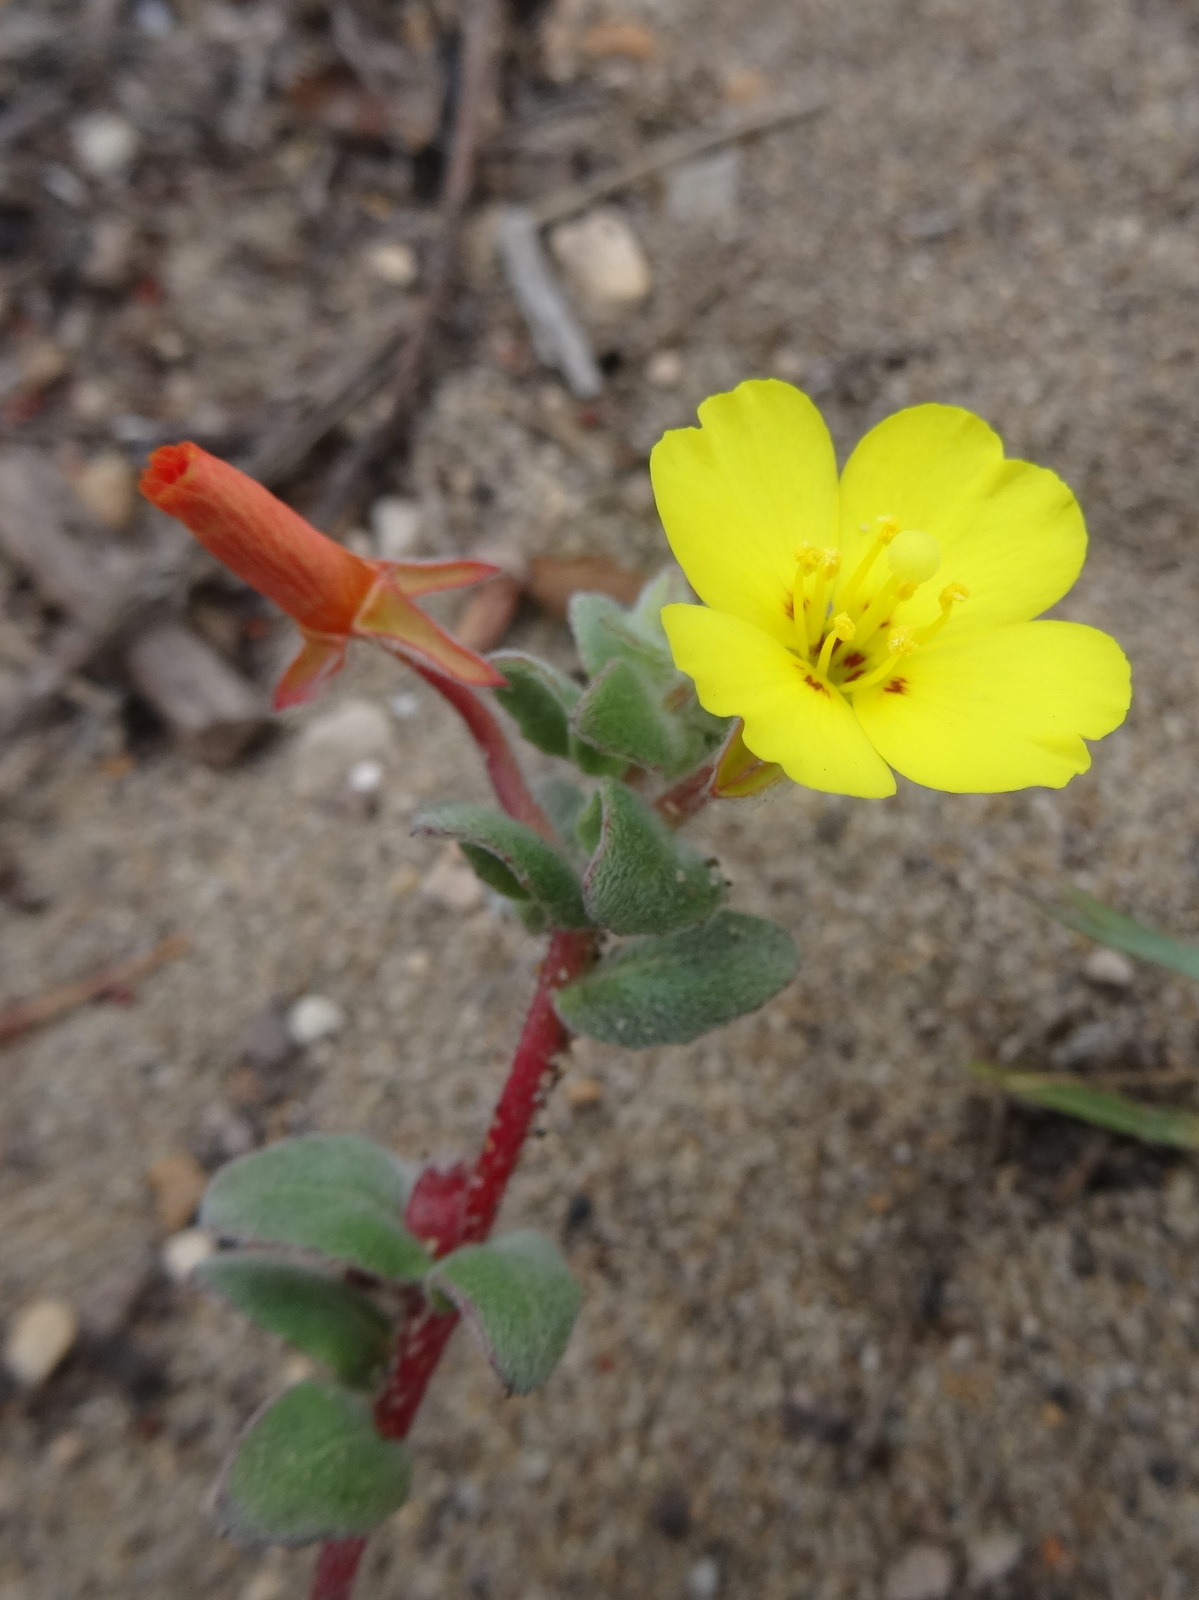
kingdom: Plantae
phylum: Tracheophyta
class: Magnoliopsida
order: Myrtales
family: Onagraceae
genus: Camissoniopsis
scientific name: Camissoniopsis cheiranthifolia
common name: Beach suncup
